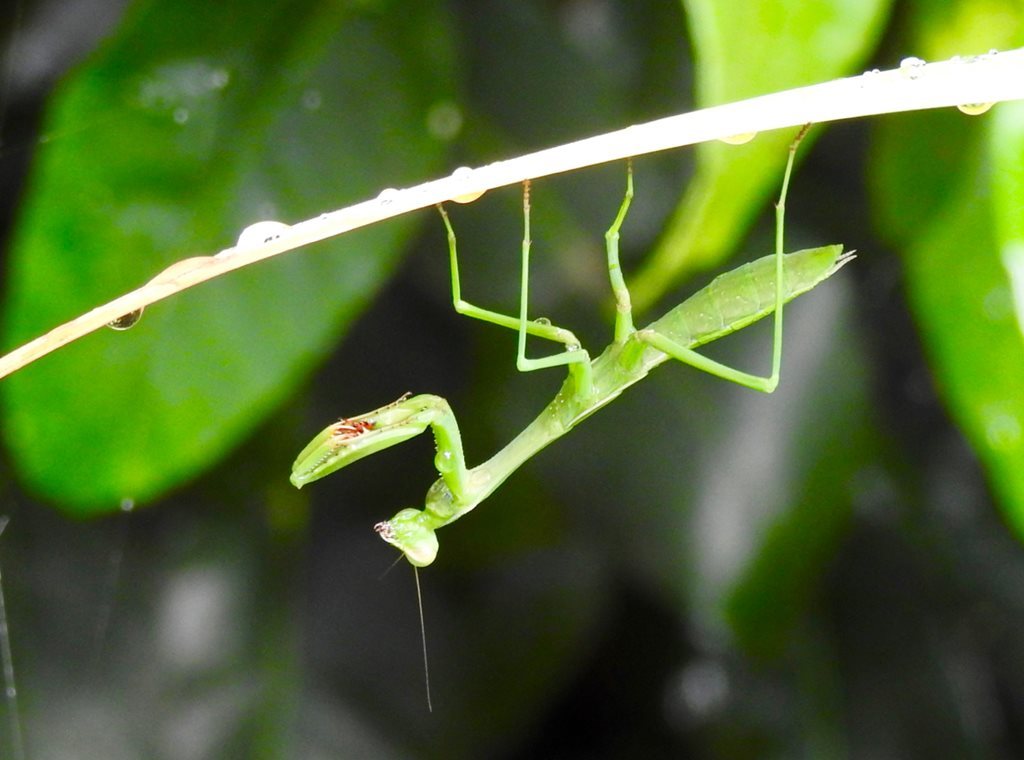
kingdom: Animalia
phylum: Arthropoda
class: Insecta
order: Mantodea
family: Mantidae
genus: Pseudomantis
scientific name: Pseudomantis albofimbriata
